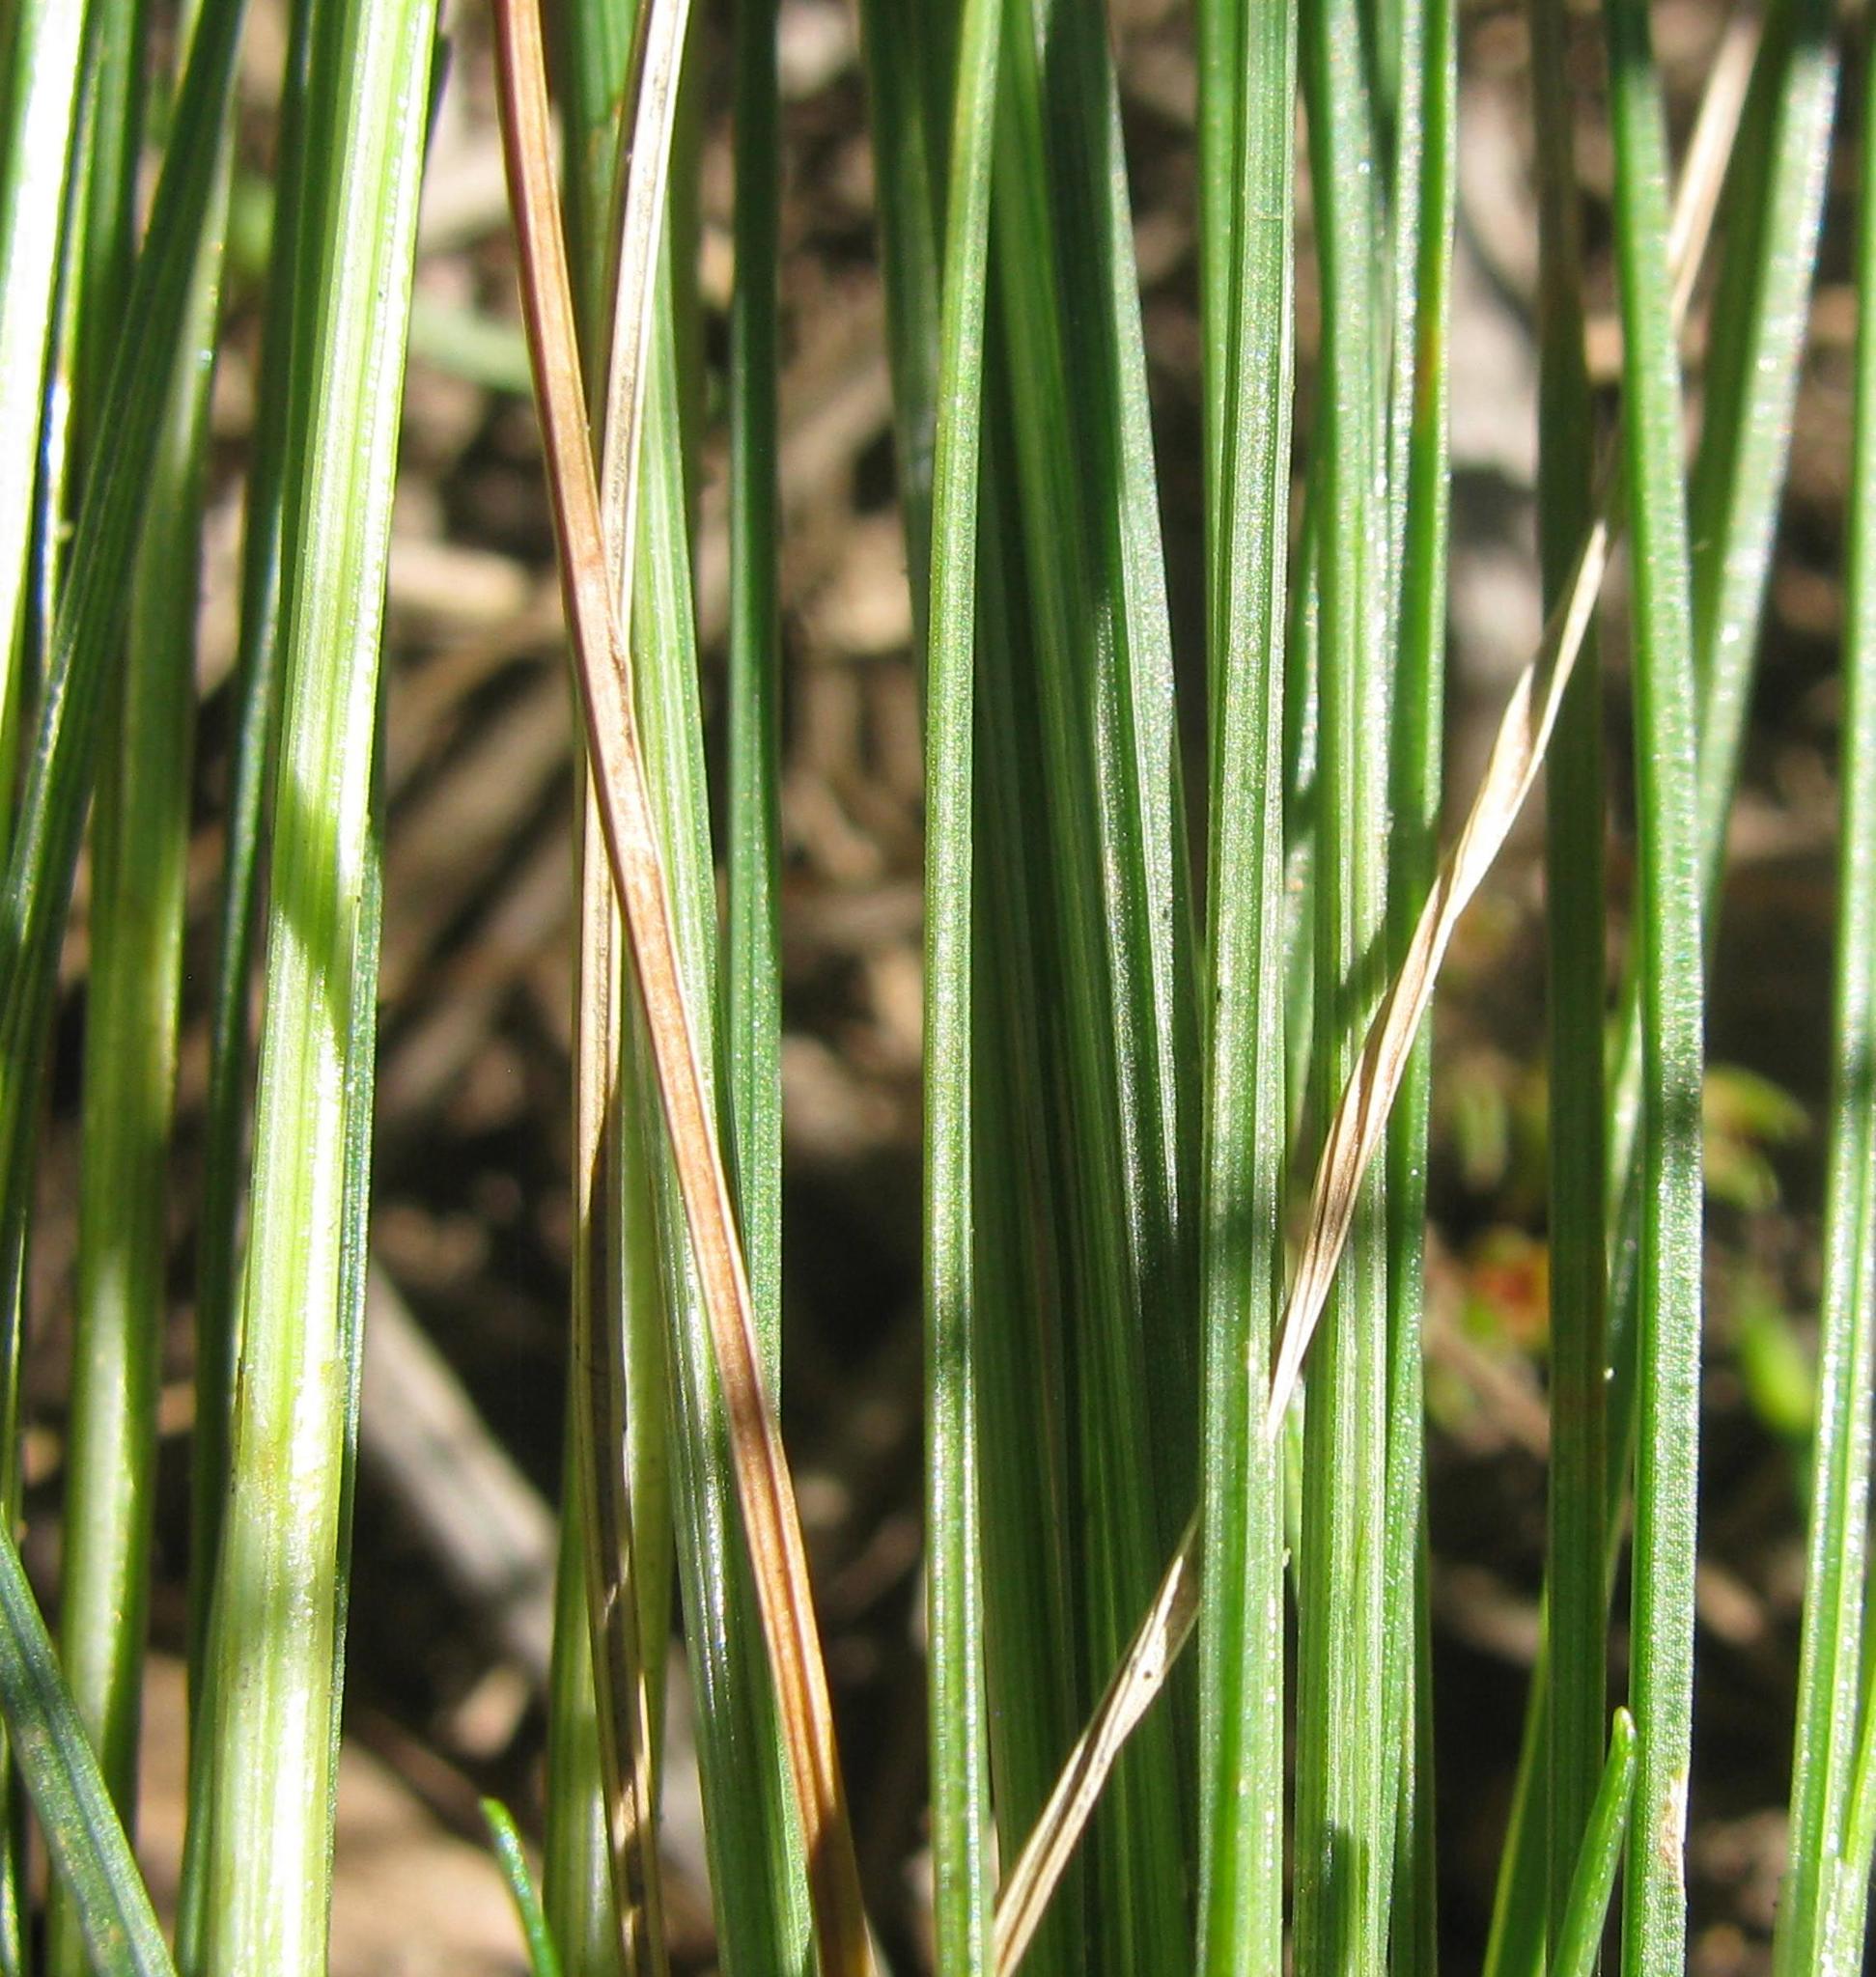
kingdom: Plantae
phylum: Tracheophyta
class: Liliopsida
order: Poales
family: Cyperaceae
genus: Ficinia
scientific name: Ficinia polystachya
